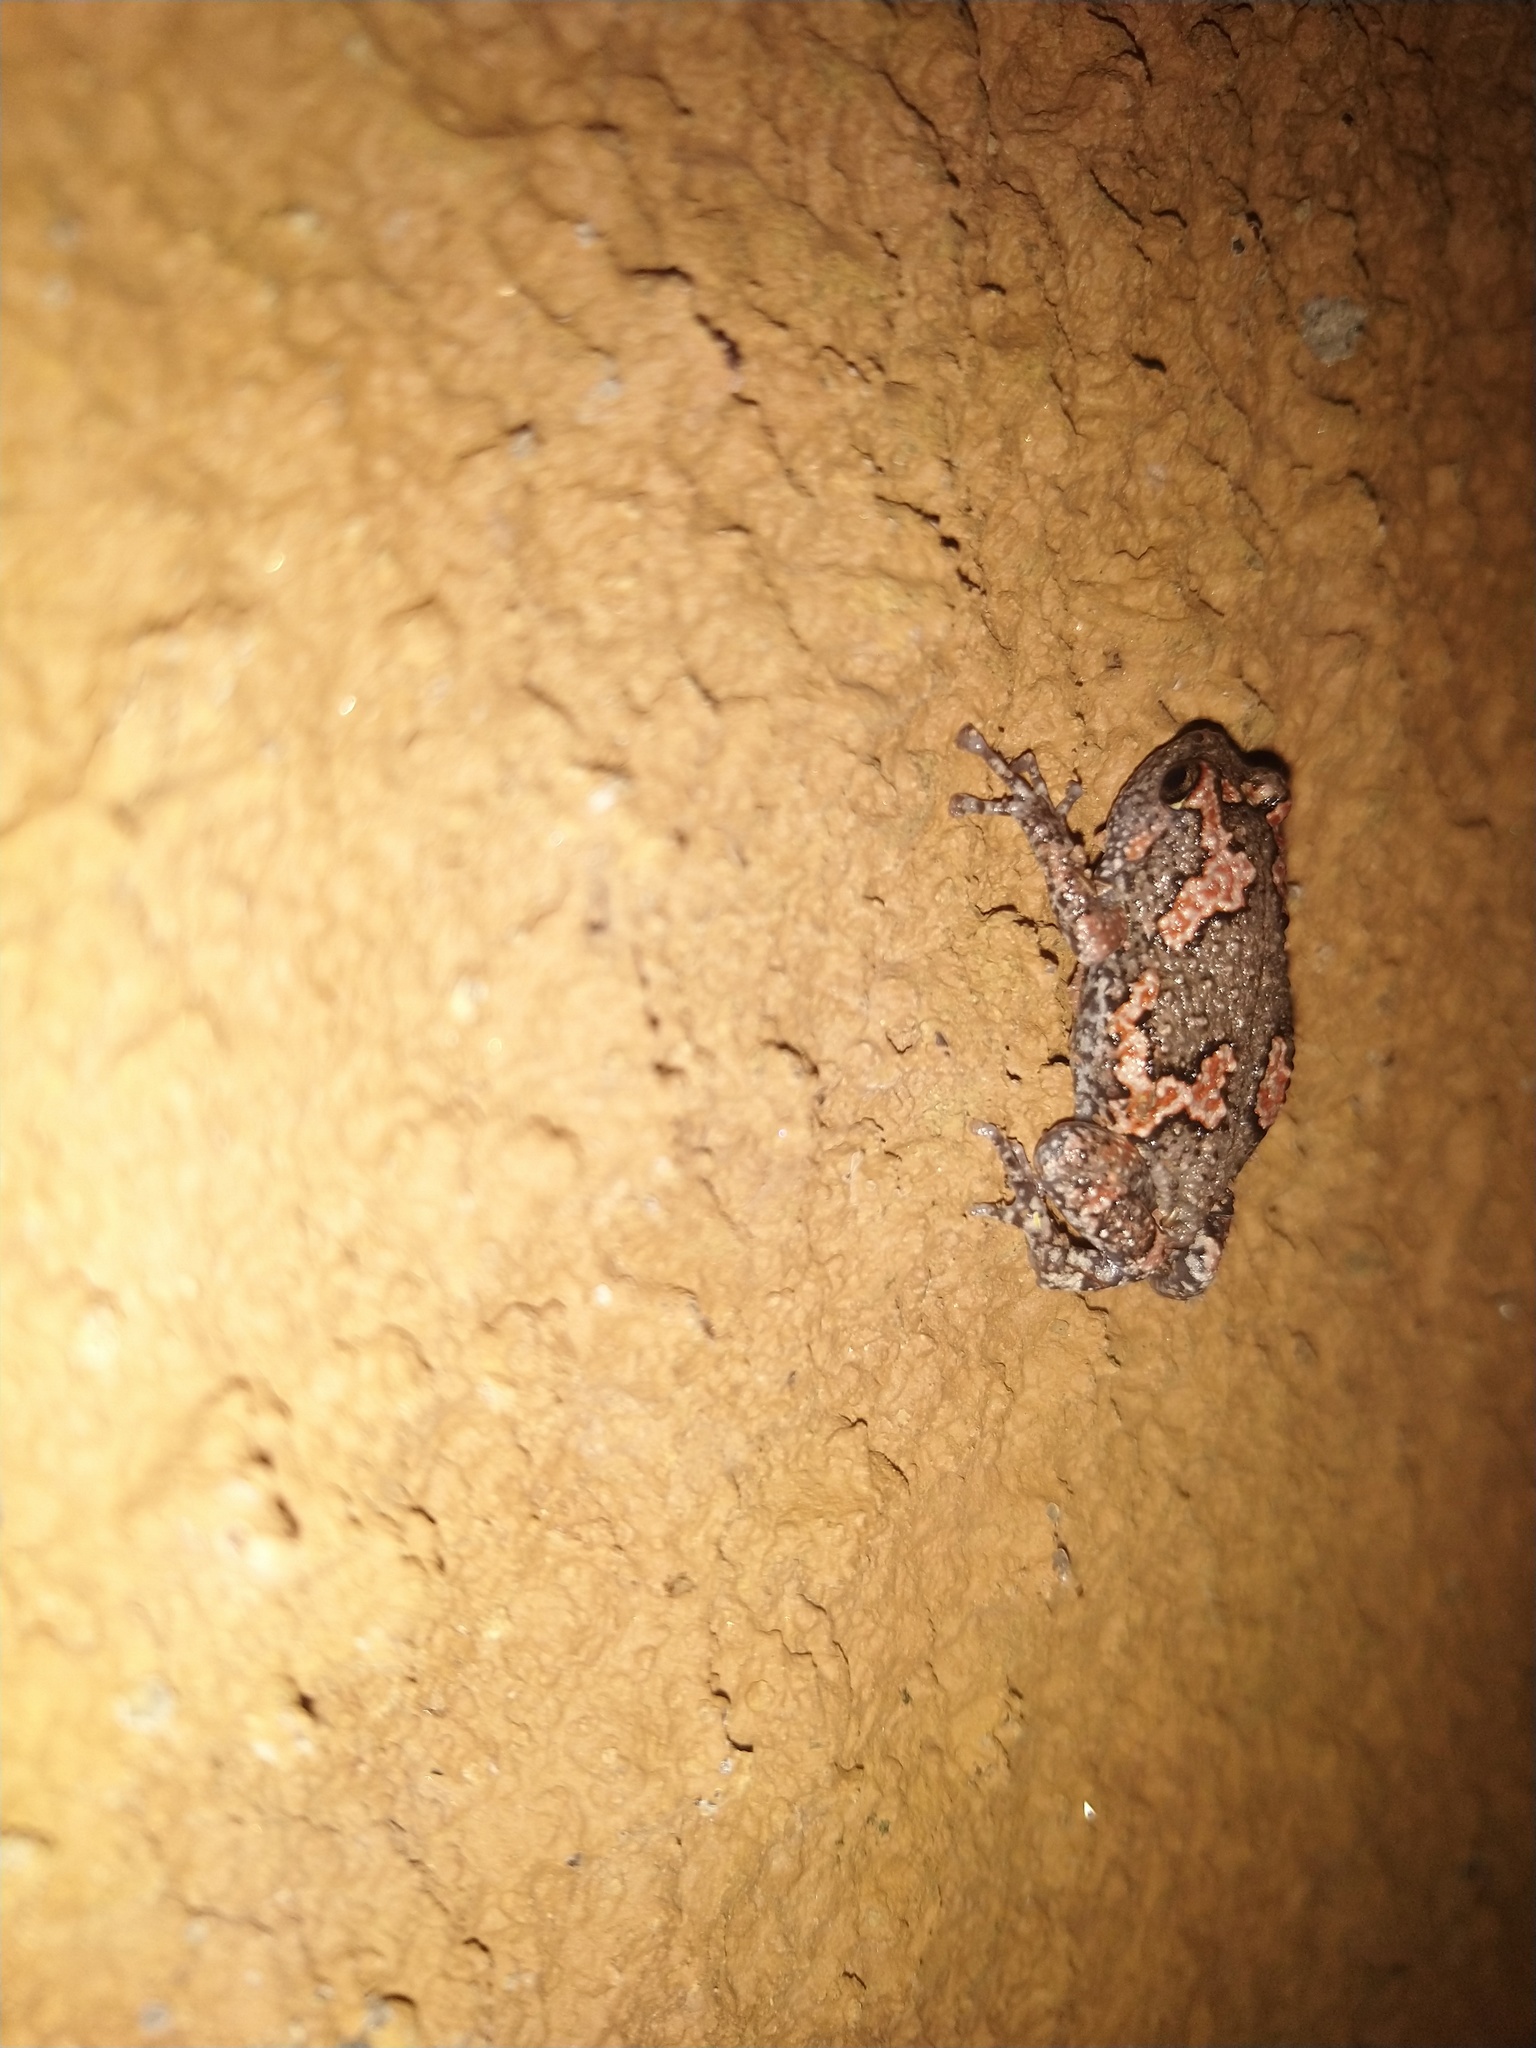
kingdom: Animalia
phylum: Chordata
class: Amphibia
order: Anura
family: Microhylidae
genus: Uperodon
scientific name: Uperodon taprobanicus
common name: Ceylon kaloula
